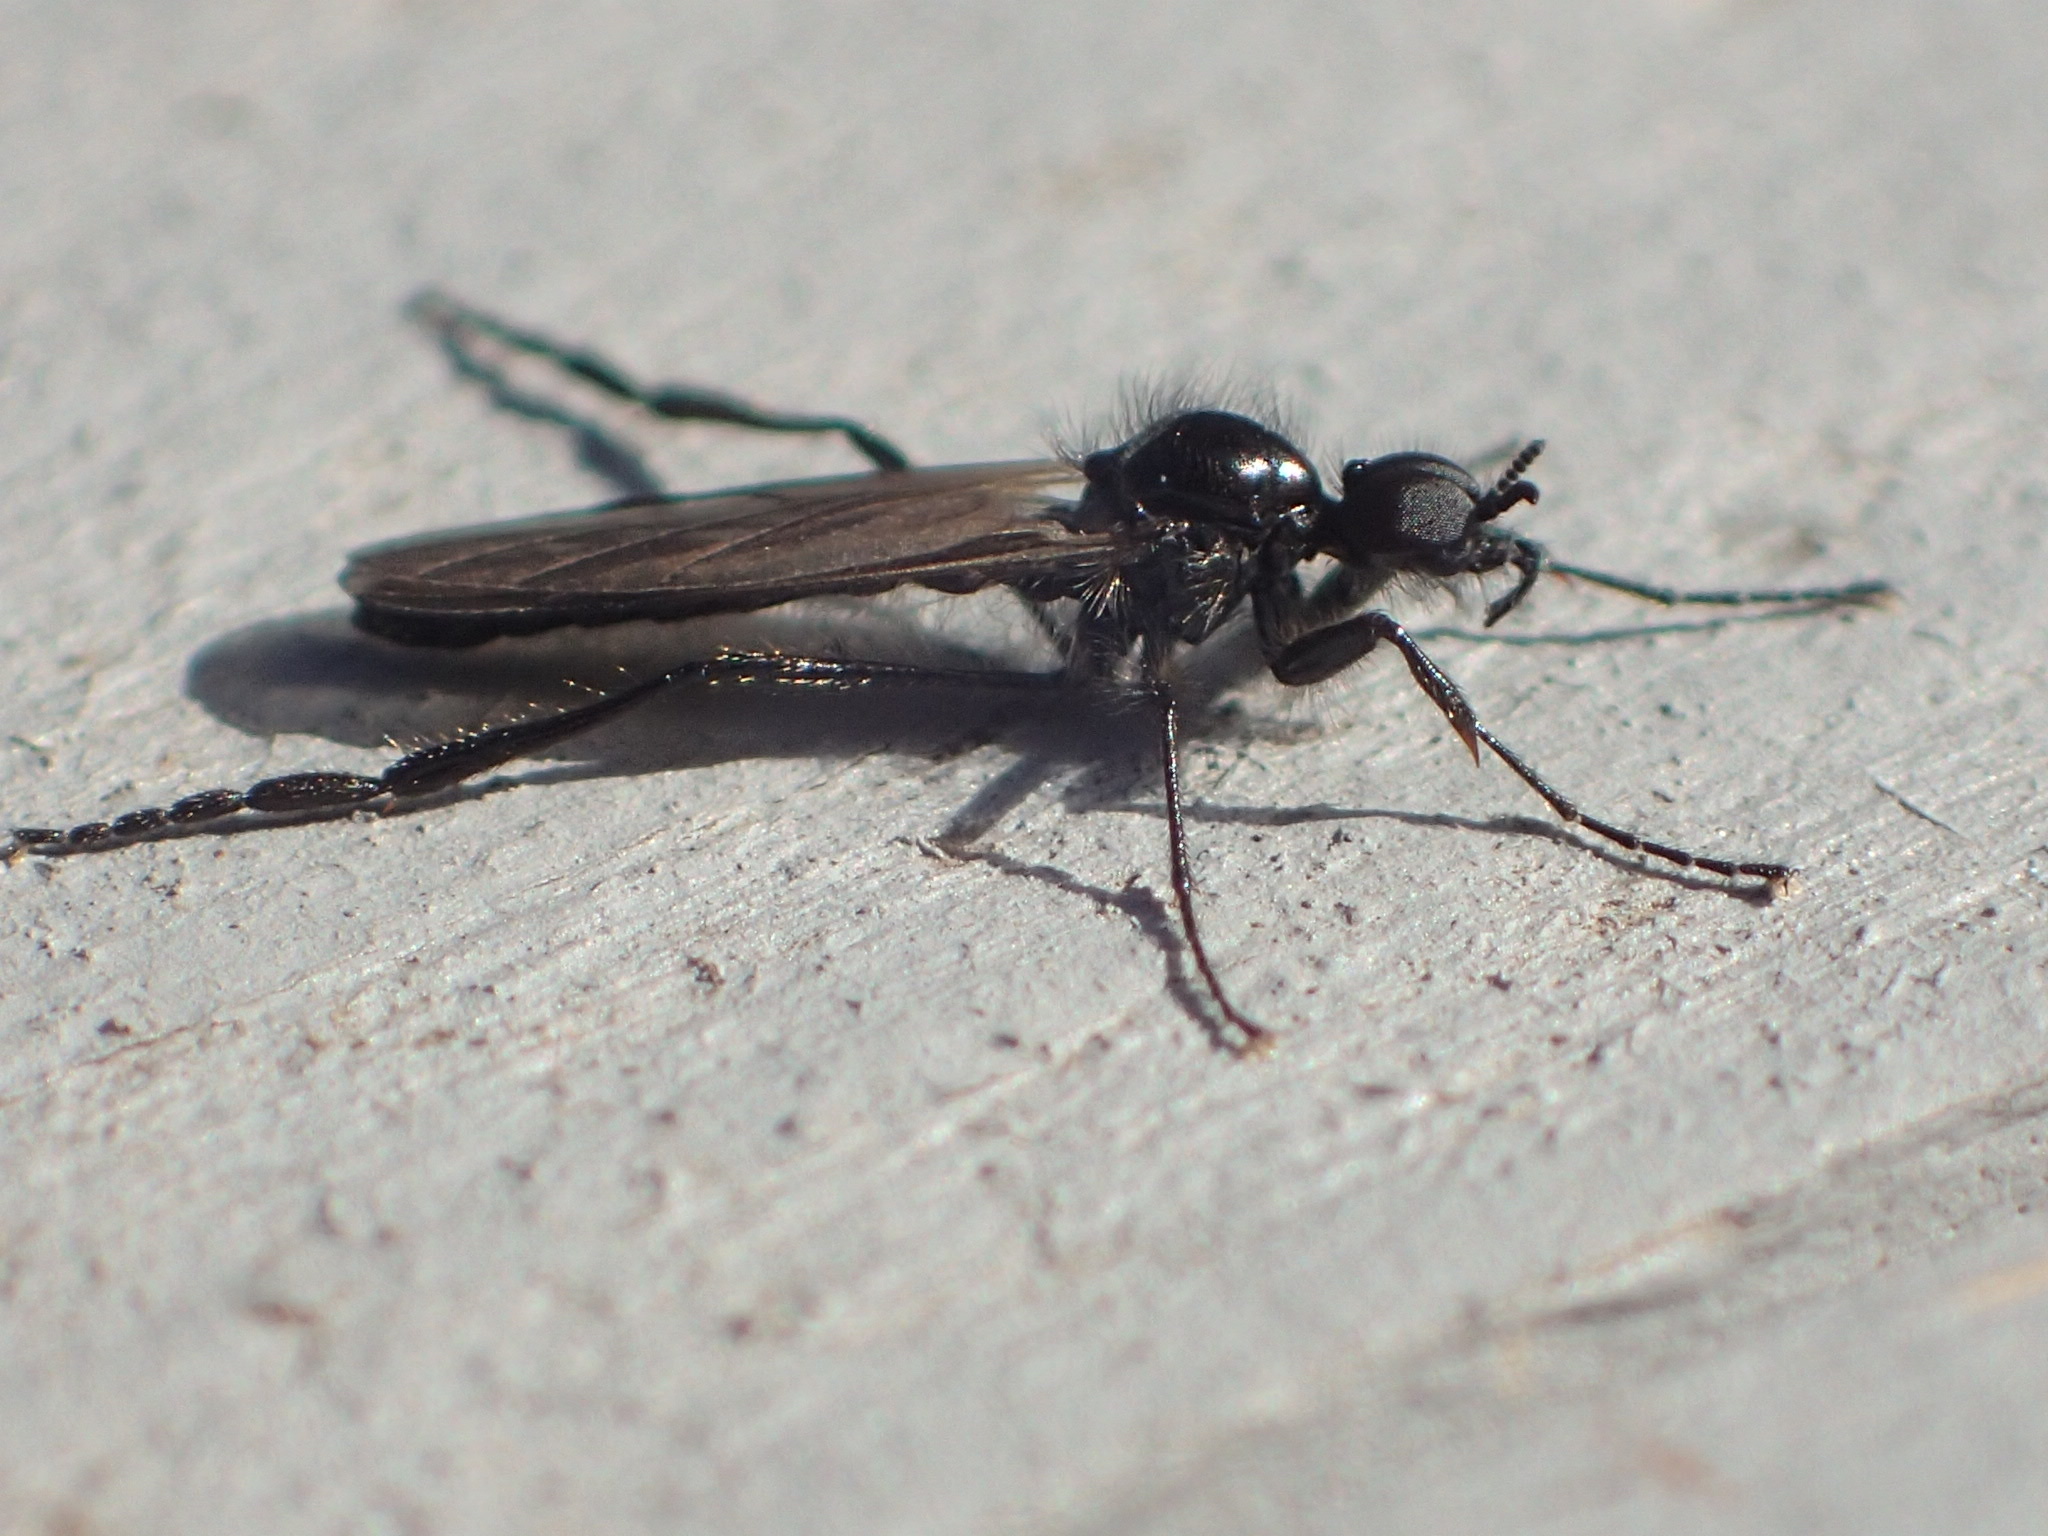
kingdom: Animalia
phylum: Arthropoda
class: Insecta
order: Diptera
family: Bibionidae
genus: Bibio
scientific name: Bibio slossonae
